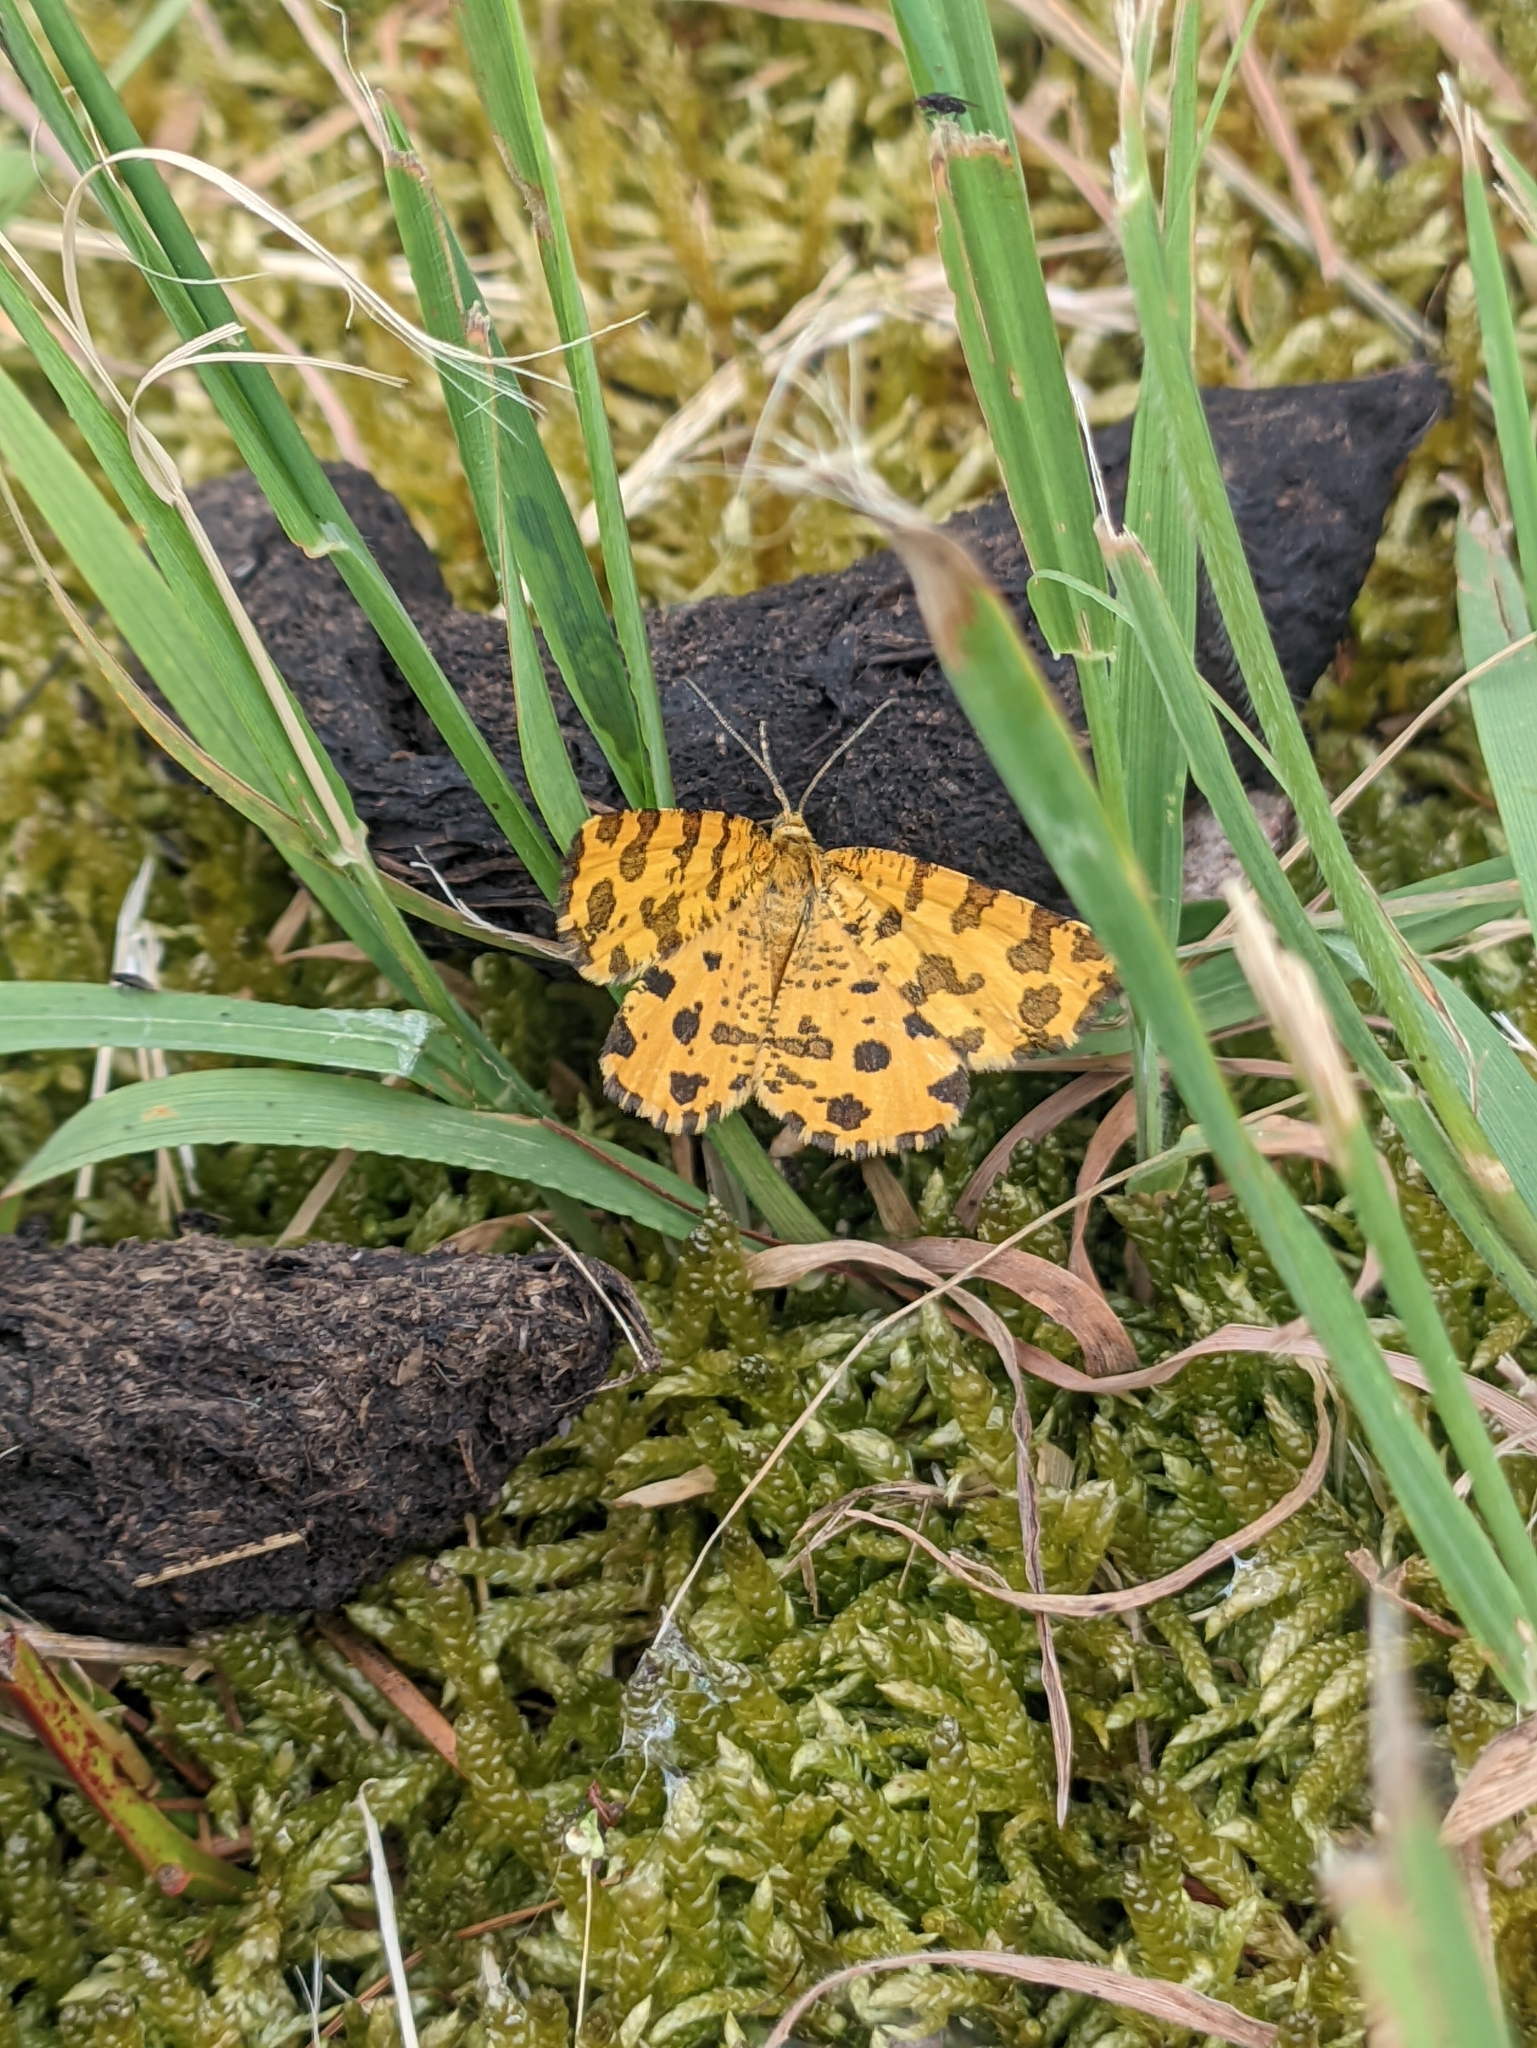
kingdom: Animalia
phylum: Arthropoda
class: Insecta
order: Lepidoptera
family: Geometridae
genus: Pseudopanthera
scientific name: Pseudopanthera macularia
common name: Speckled yellow
